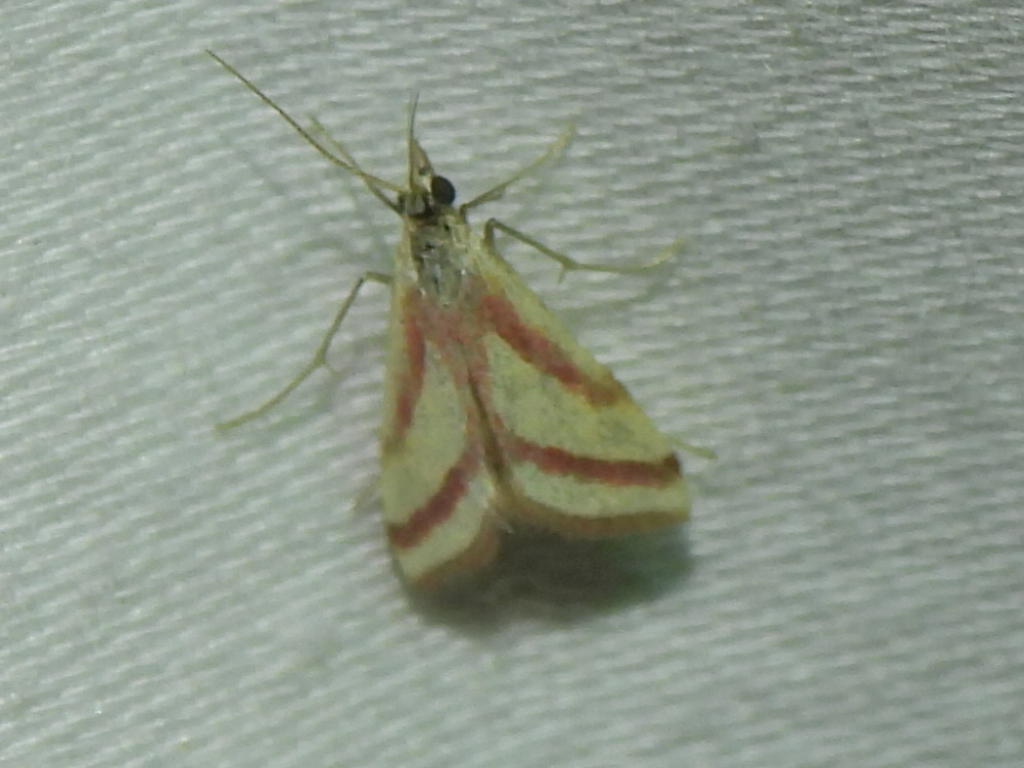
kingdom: Animalia
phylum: Arthropoda
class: Insecta
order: Lepidoptera
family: Crambidae
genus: Microtheoris
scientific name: Microtheoris vibicalis
